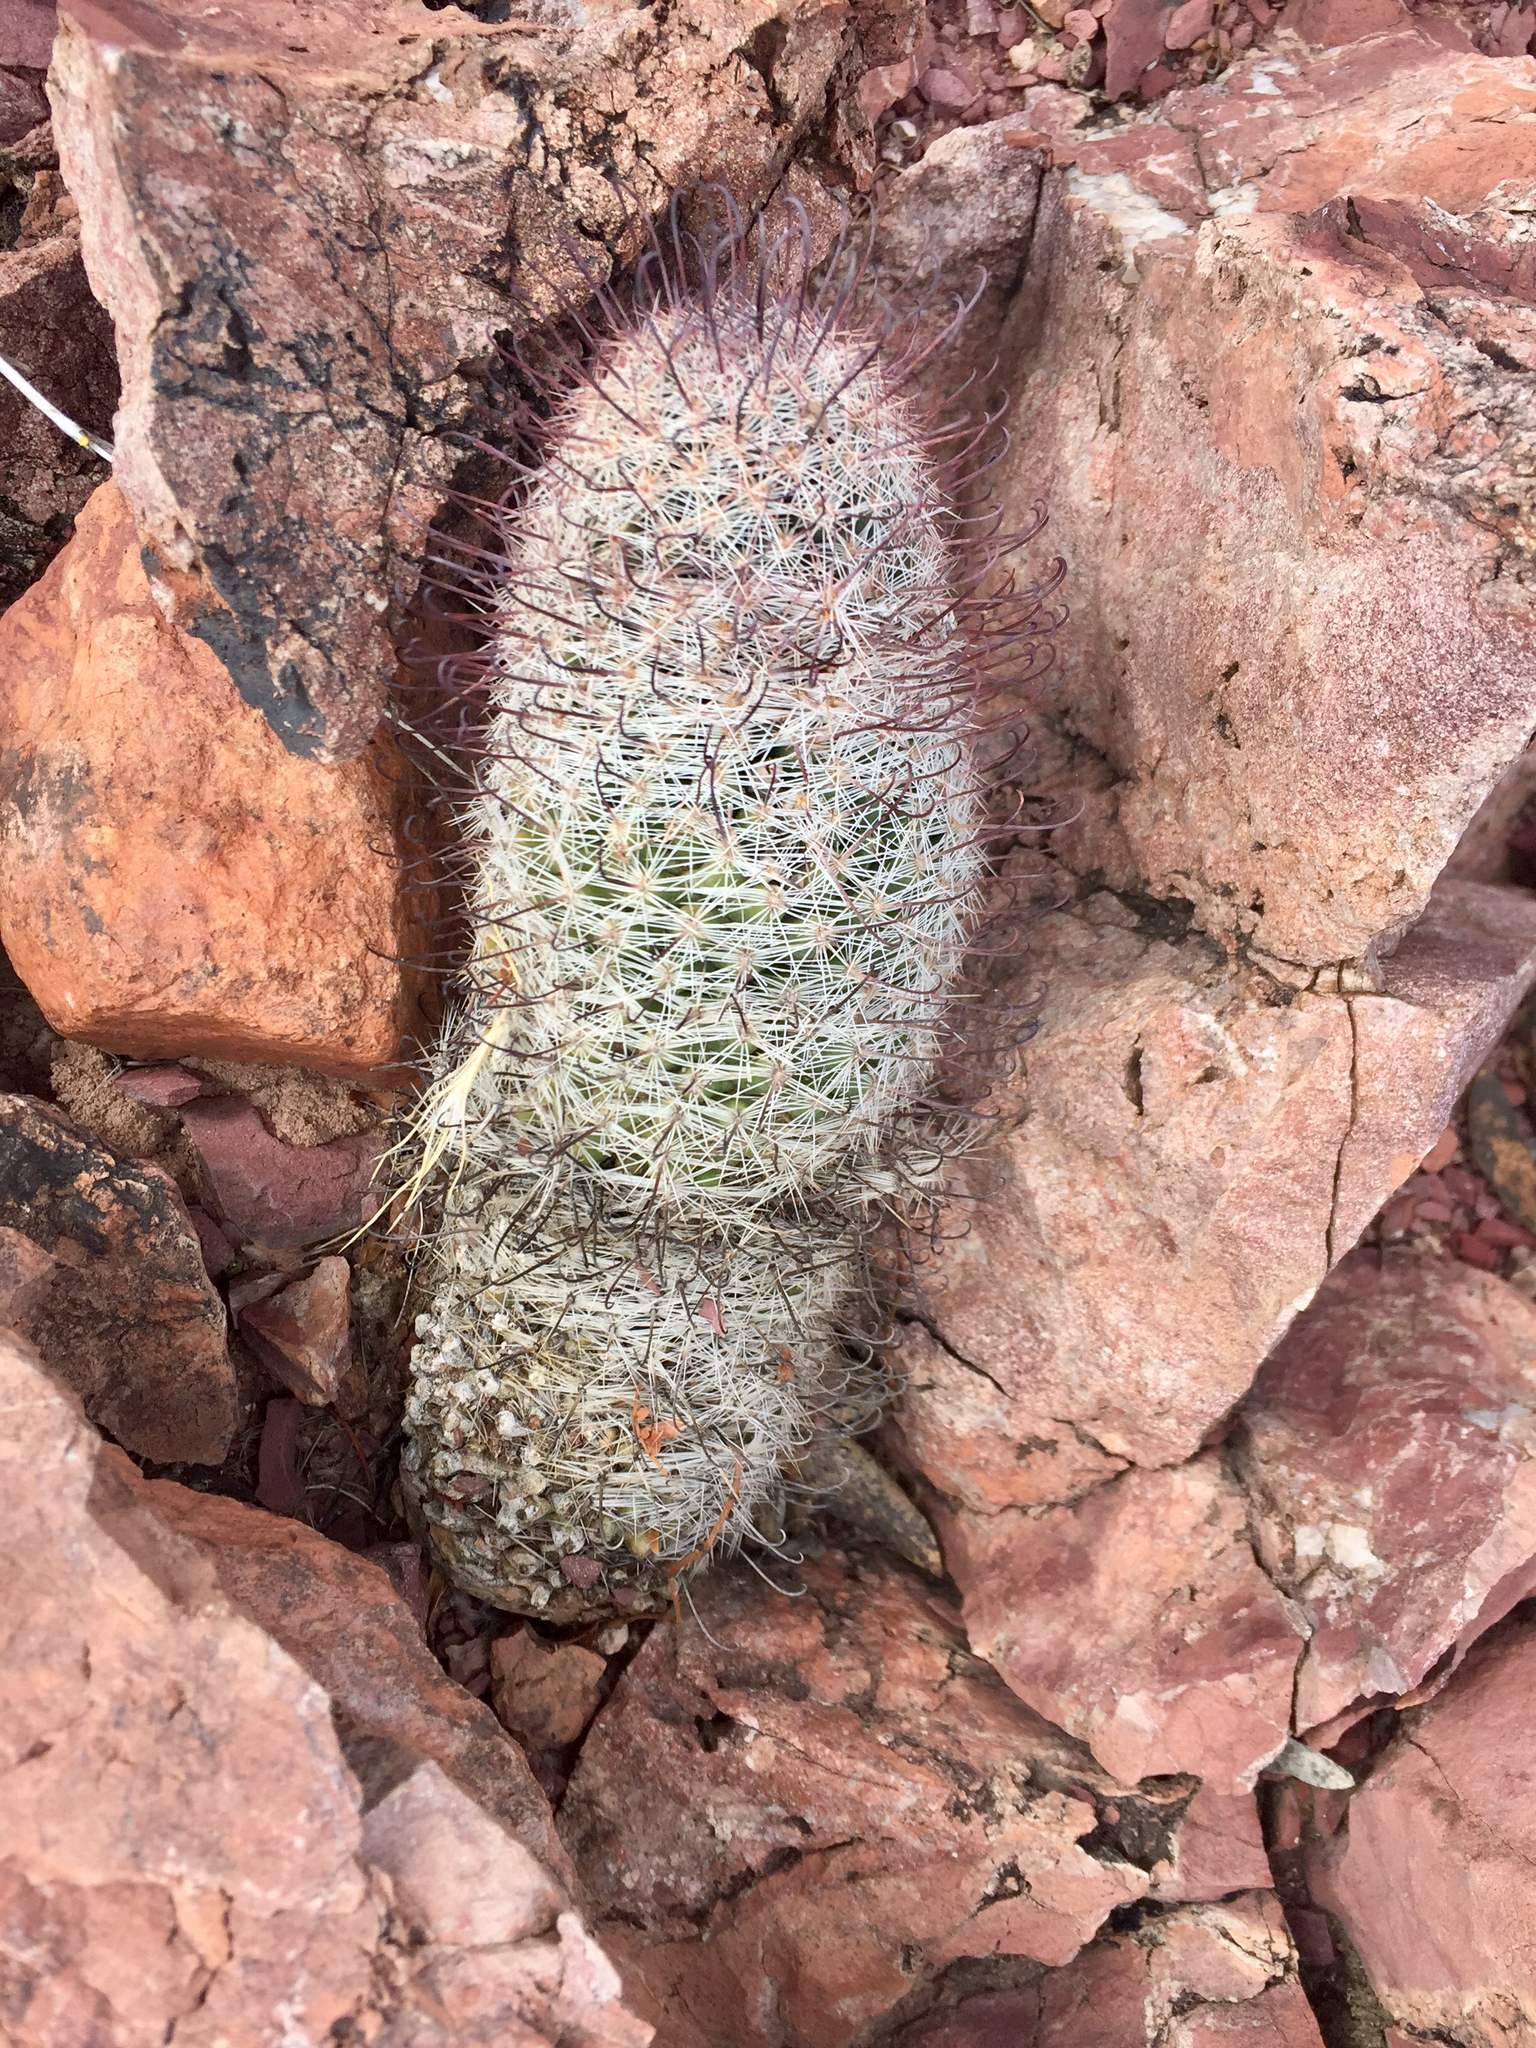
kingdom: Plantae
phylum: Tracheophyta
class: Magnoliopsida
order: Caryophyllales
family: Cactaceae
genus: Cochemiea
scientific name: Cochemiea grahamii
